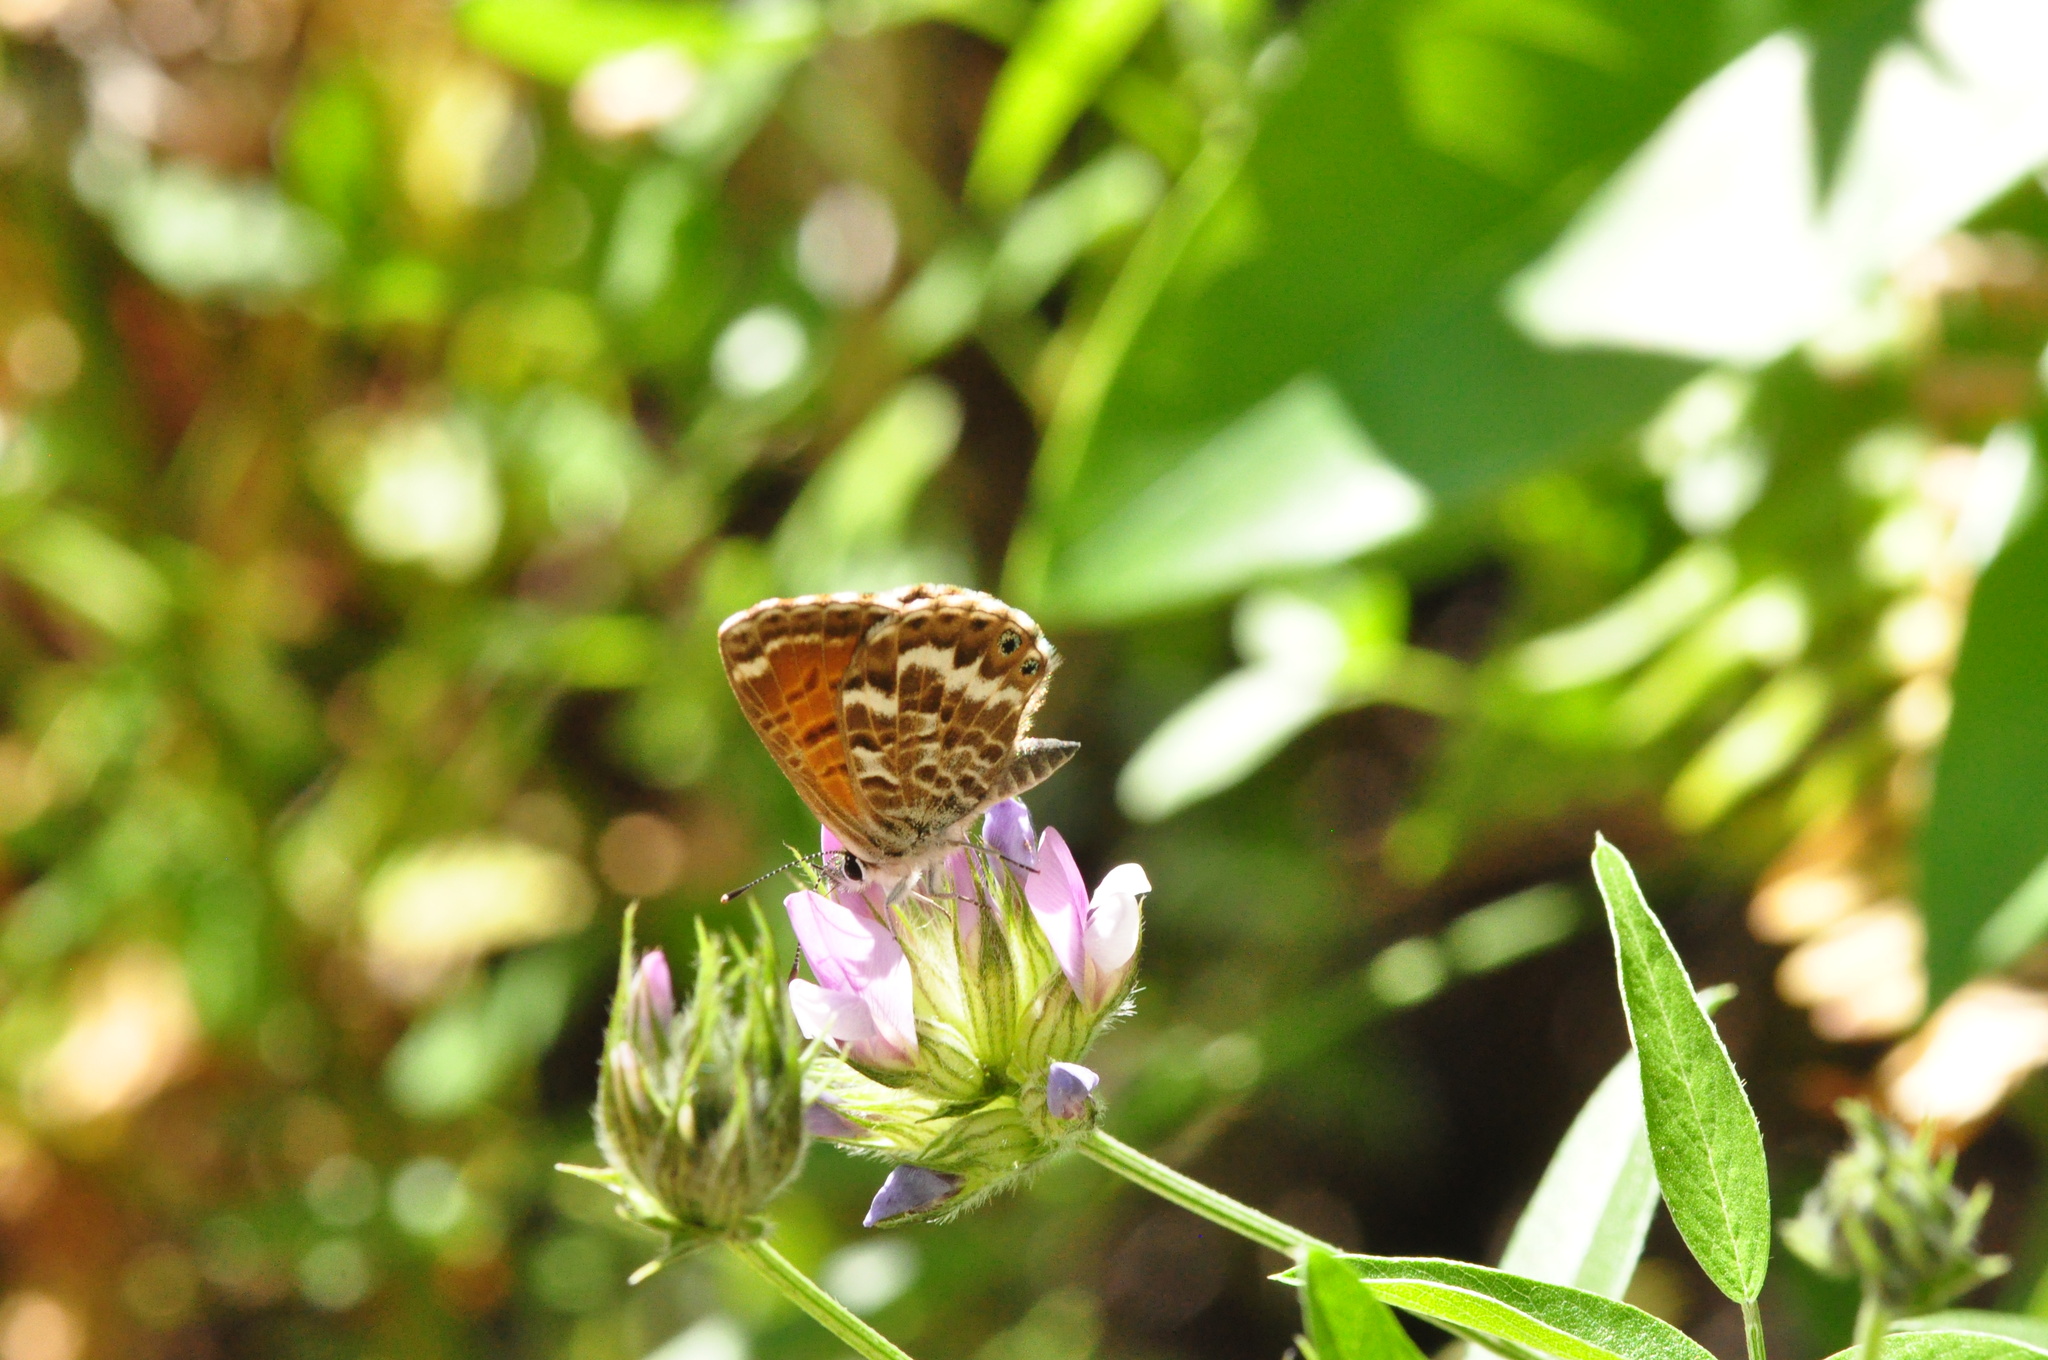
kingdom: Animalia
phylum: Arthropoda
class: Insecta
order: Lepidoptera
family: Lycaenidae
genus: Cyclyrius
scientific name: Cyclyrius webbianus
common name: Canary blue
